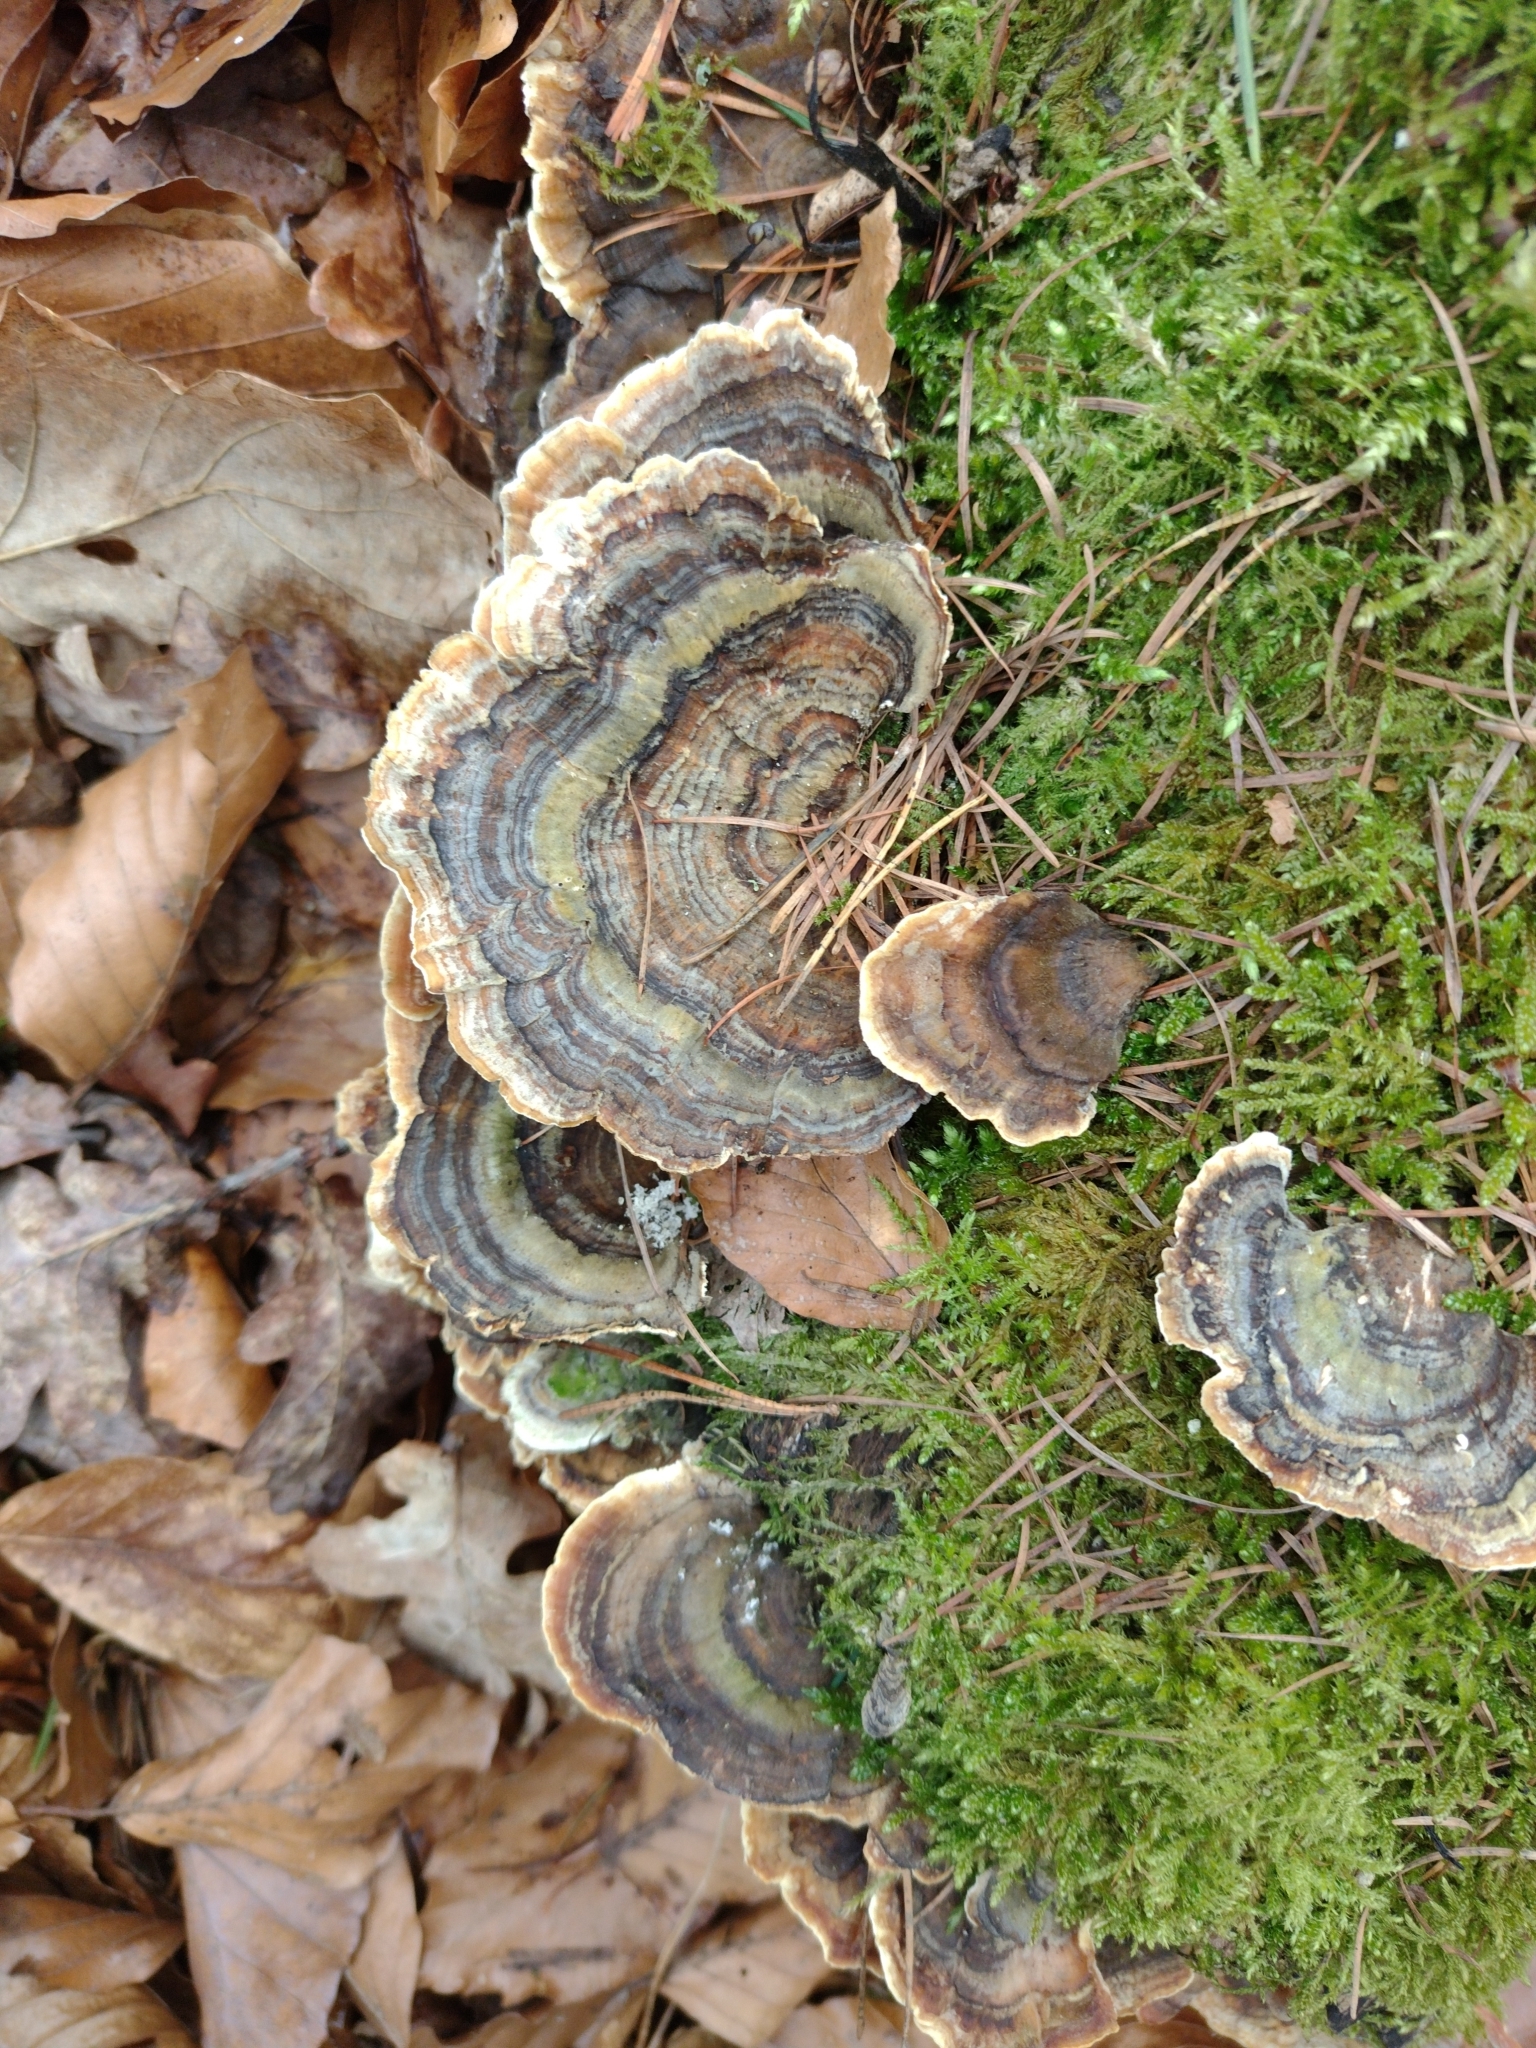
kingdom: Fungi
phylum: Basidiomycota
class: Agaricomycetes
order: Polyporales
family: Polyporaceae
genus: Trametes
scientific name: Trametes versicolor
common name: Turkeytail
